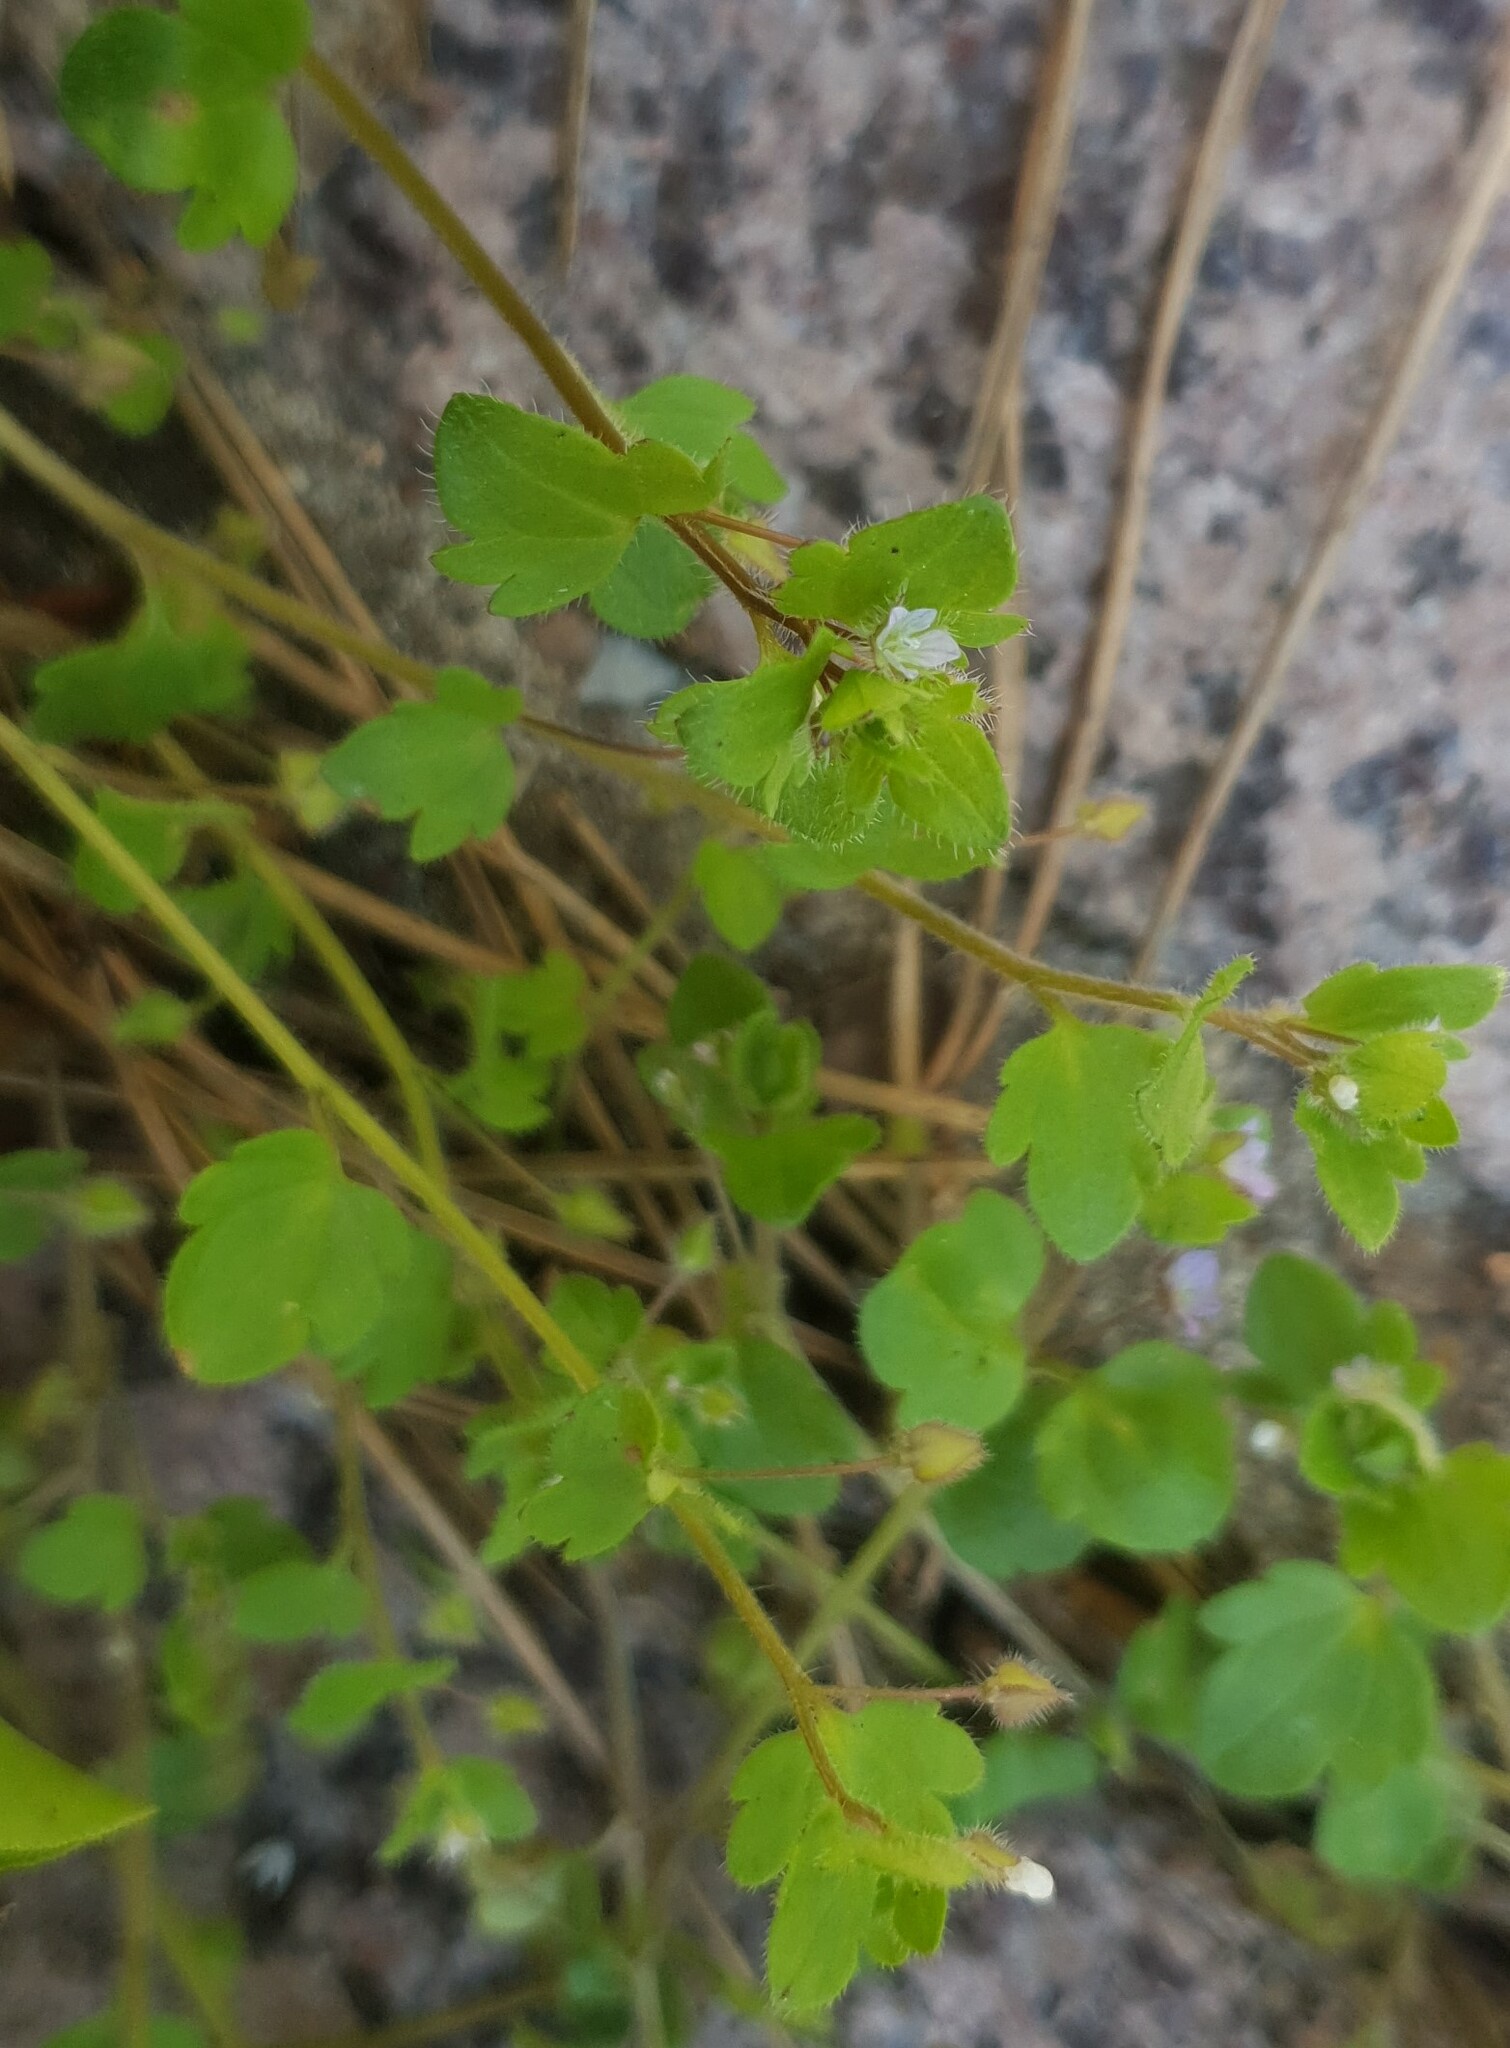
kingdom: Plantae
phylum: Tracheophyta
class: Magnoliopsida
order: Lamiales
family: Plantaginaceae
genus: Veronica
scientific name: Veronica sublobata
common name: False ivy-leaved speedwell
